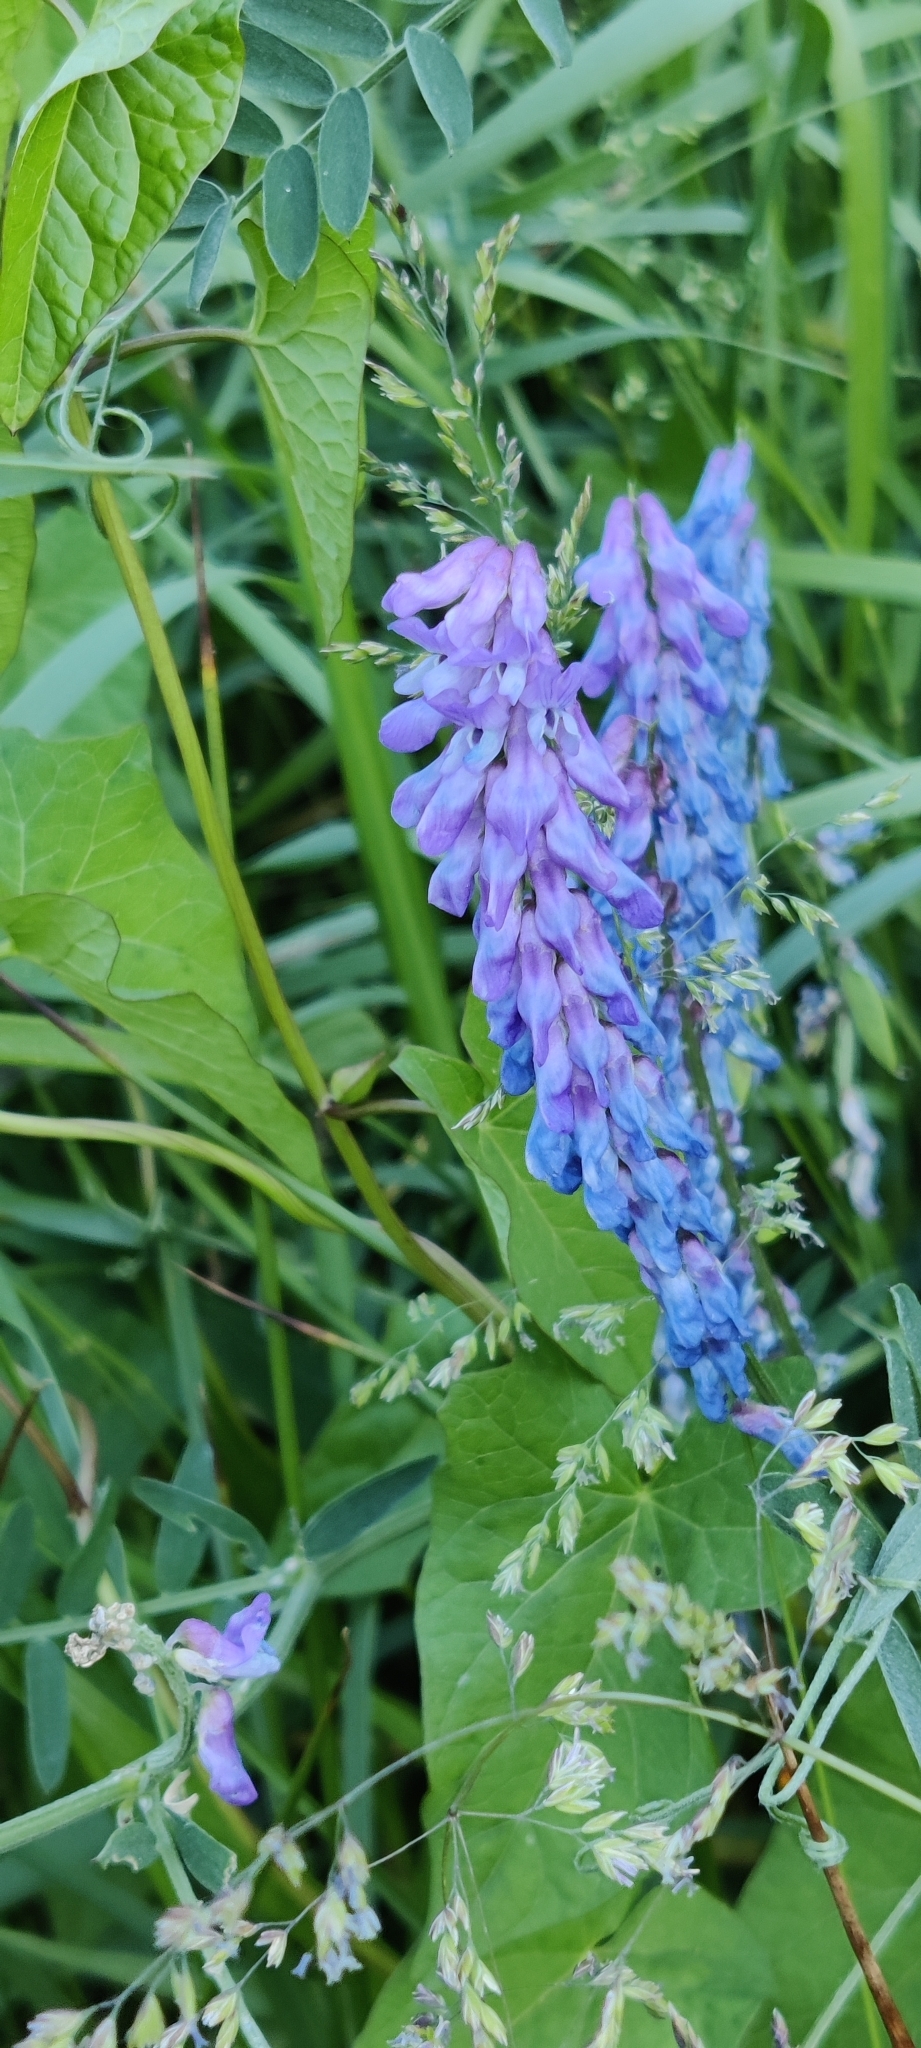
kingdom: Plantae
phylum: Tracheophyta
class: Magnoliopsida
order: Fabales
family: Fabaceae
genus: Vicia
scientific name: Vicia cracca
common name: Bird vetch
